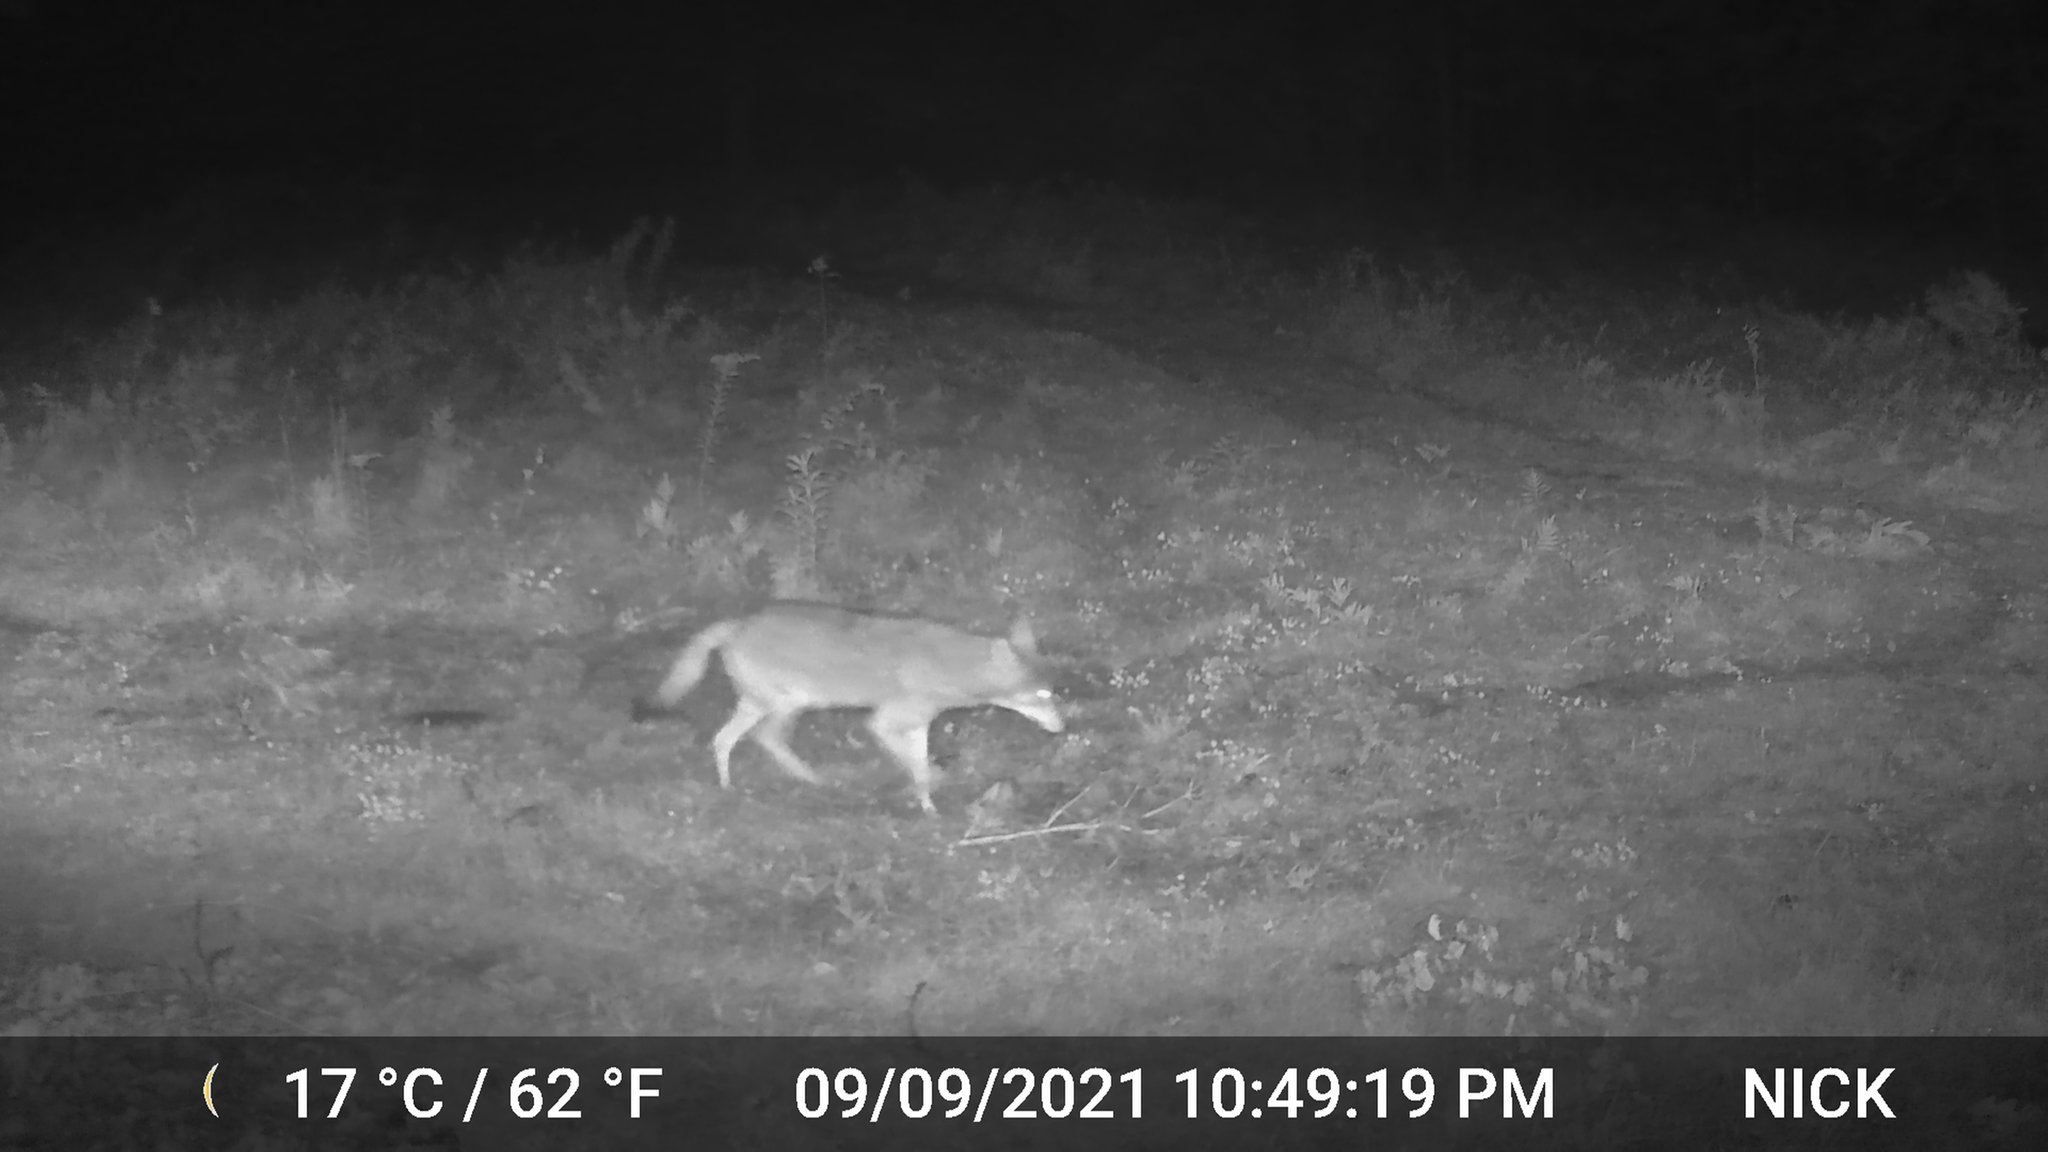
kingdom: Animalia
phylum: Chordata
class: Mammalia
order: Carnivora
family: Canidae
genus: Canis
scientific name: Canis latrans
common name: Coyote
